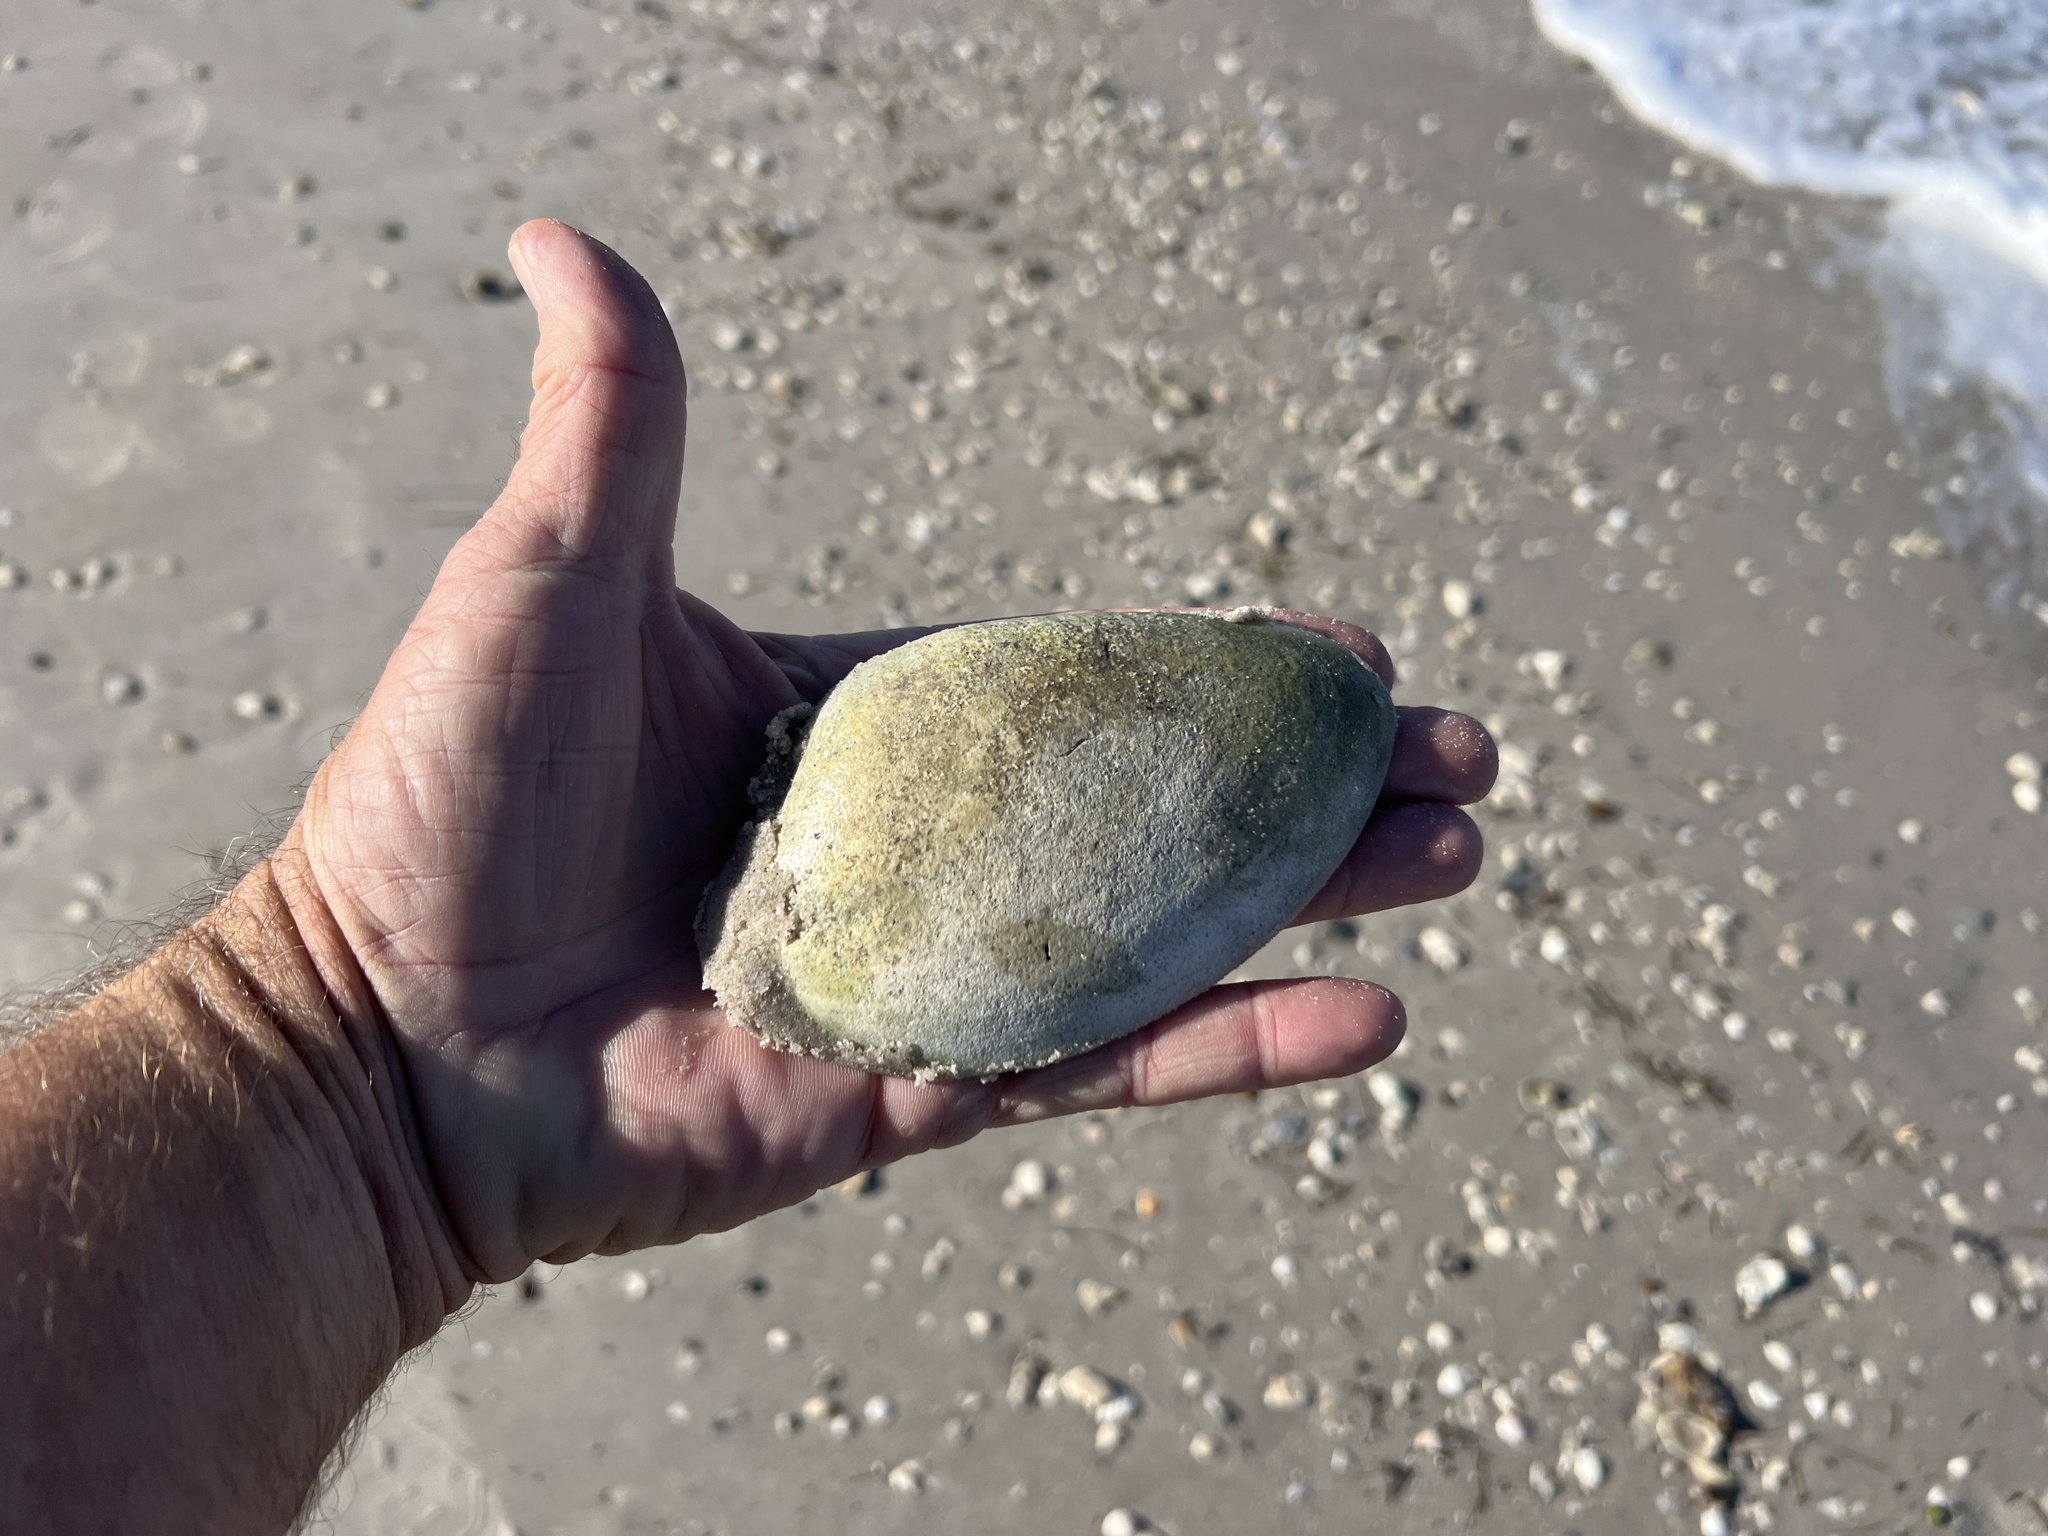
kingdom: Animalia
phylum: Mollusca
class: Bivalvia
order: Cardiida
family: Cardiidae
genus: Dinocardium
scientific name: Dinocardium robustum
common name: Atlantic giant cockle
